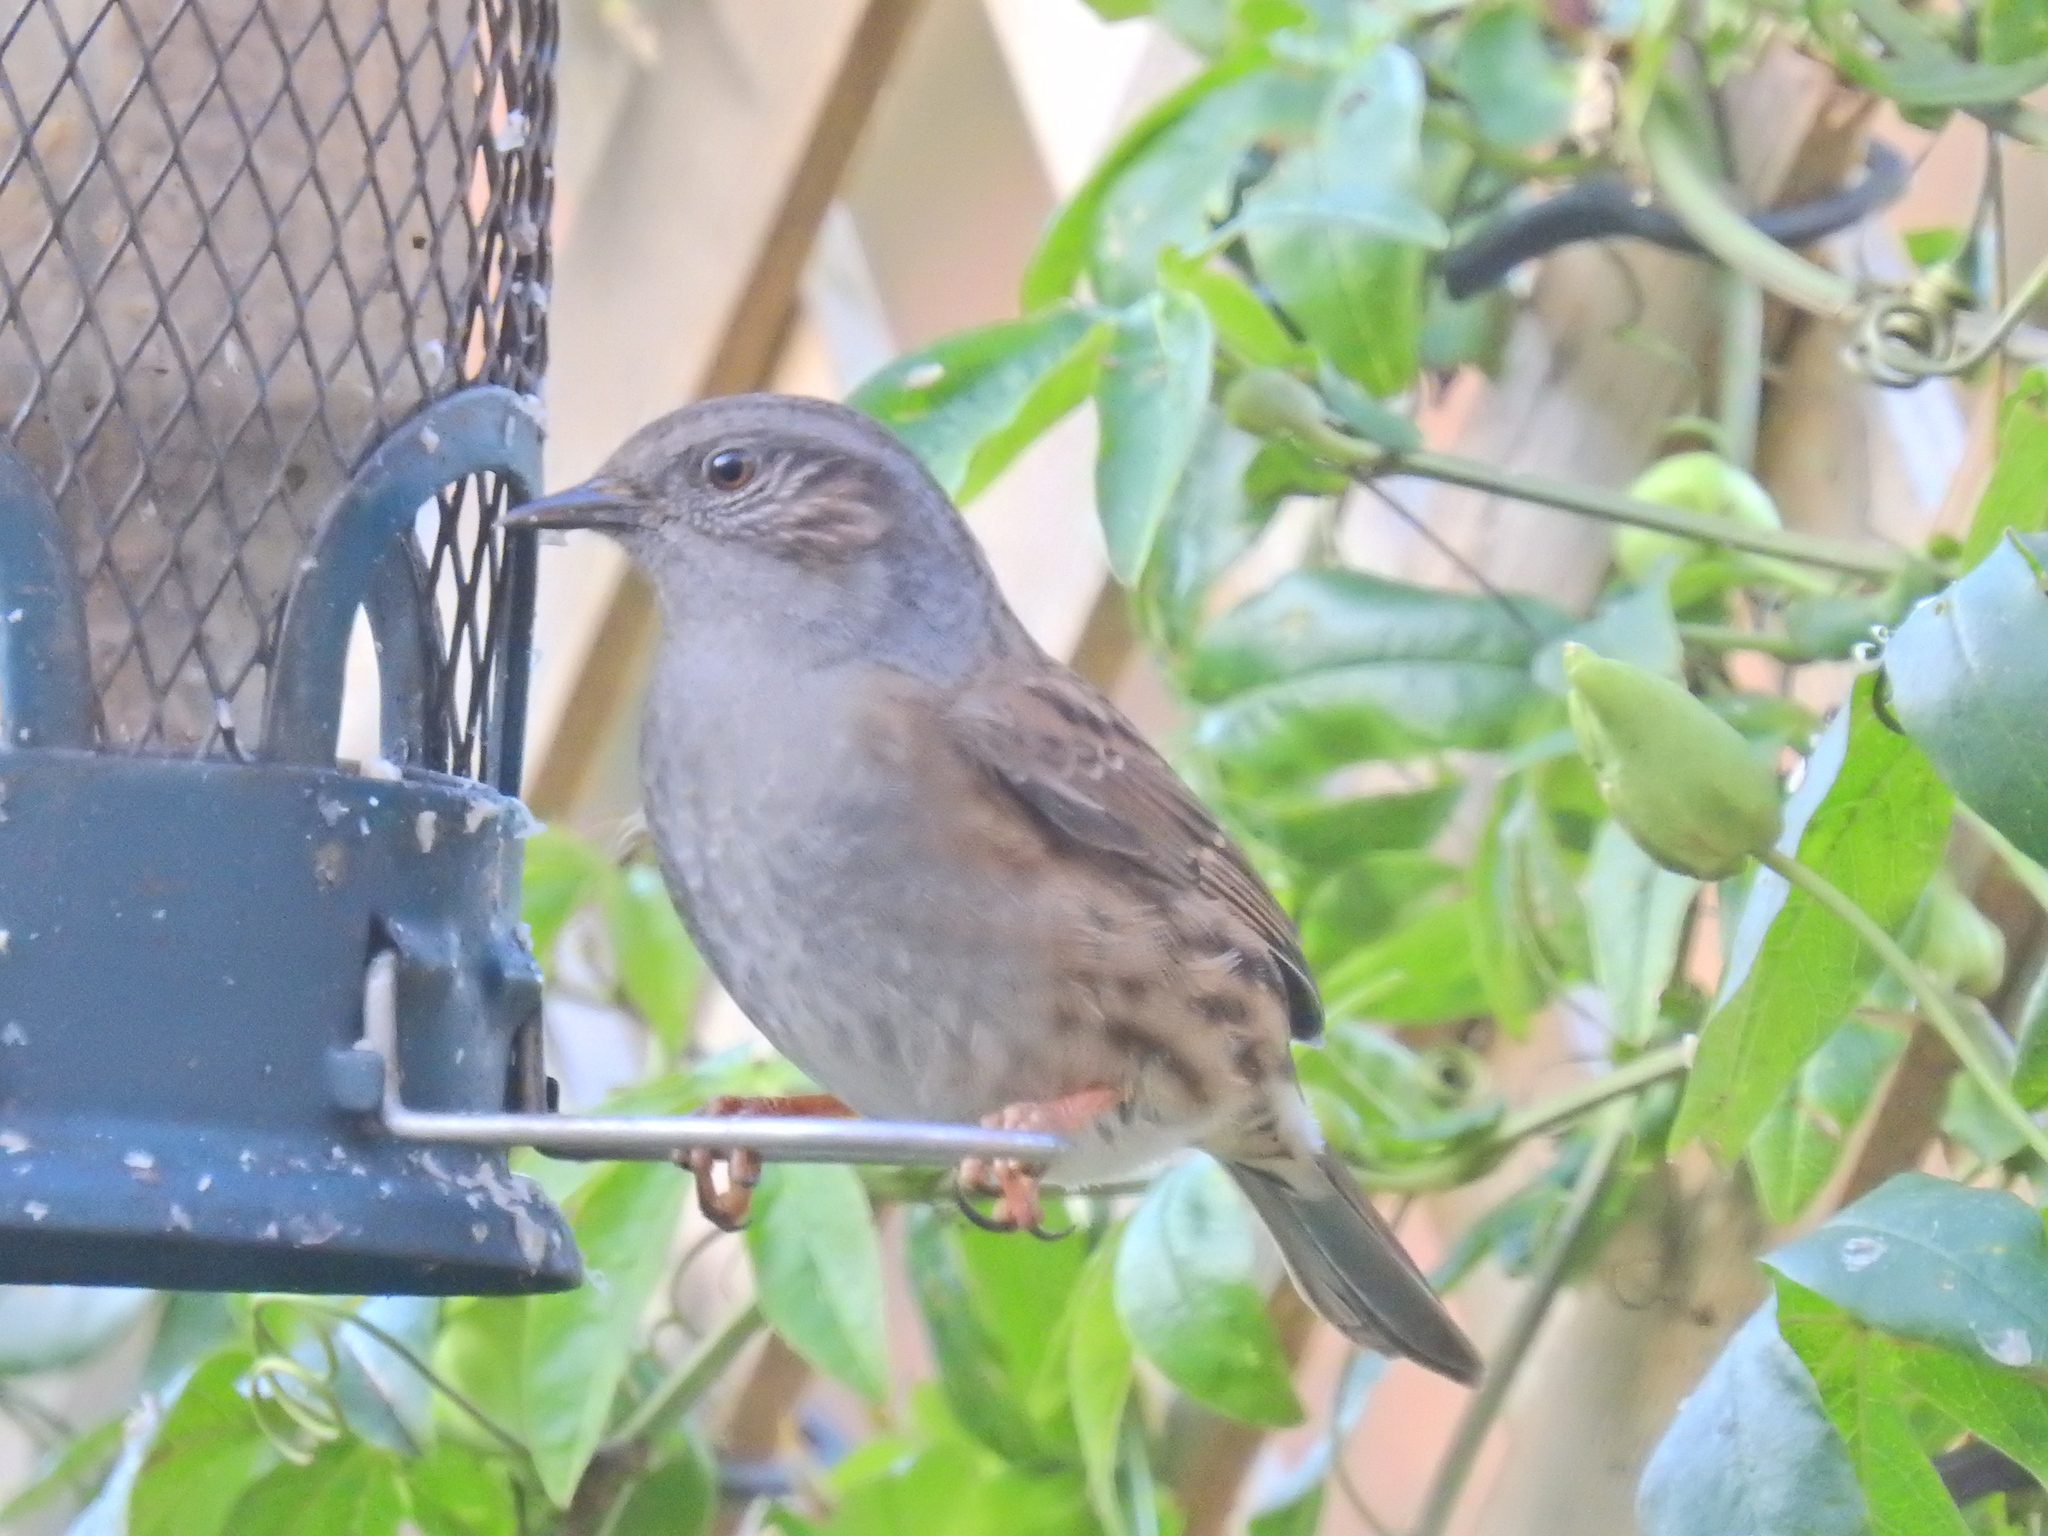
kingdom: Animalia
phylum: Chordata
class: Aves
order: Passeriformes
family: Prunellidae
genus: Prunella
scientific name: Prunella modularis
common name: Dunnock
